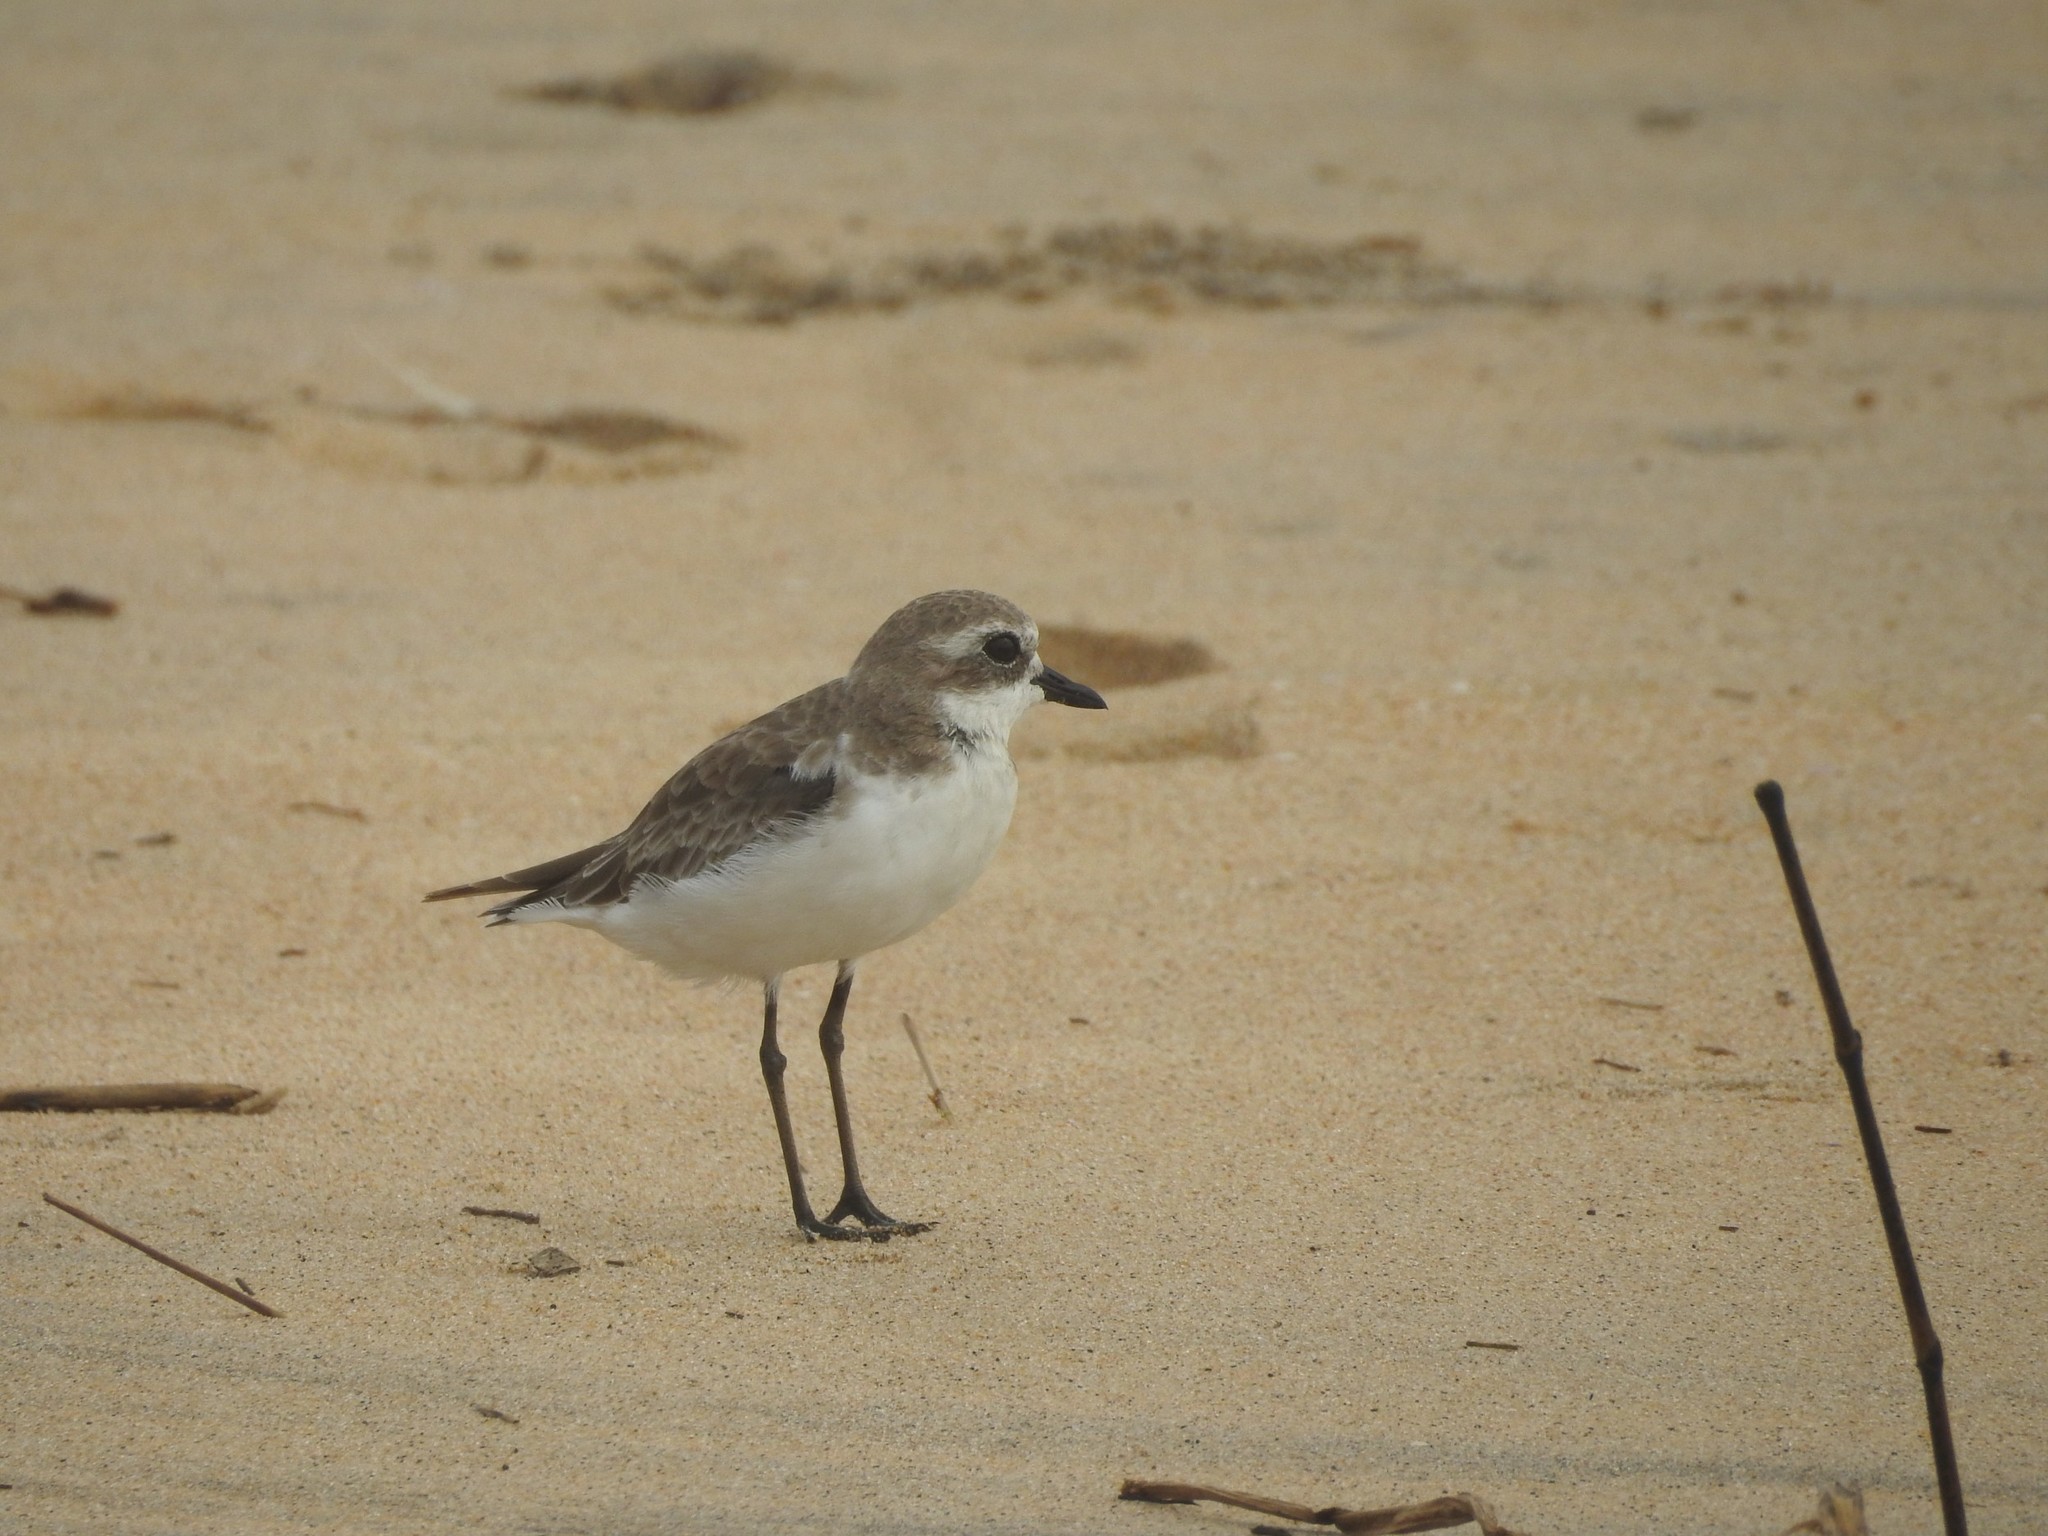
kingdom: Animalia
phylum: Chordata
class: Aves
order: Charadriiformes
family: Charadriidae
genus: Anarhynchus
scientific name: Anarhynchus
